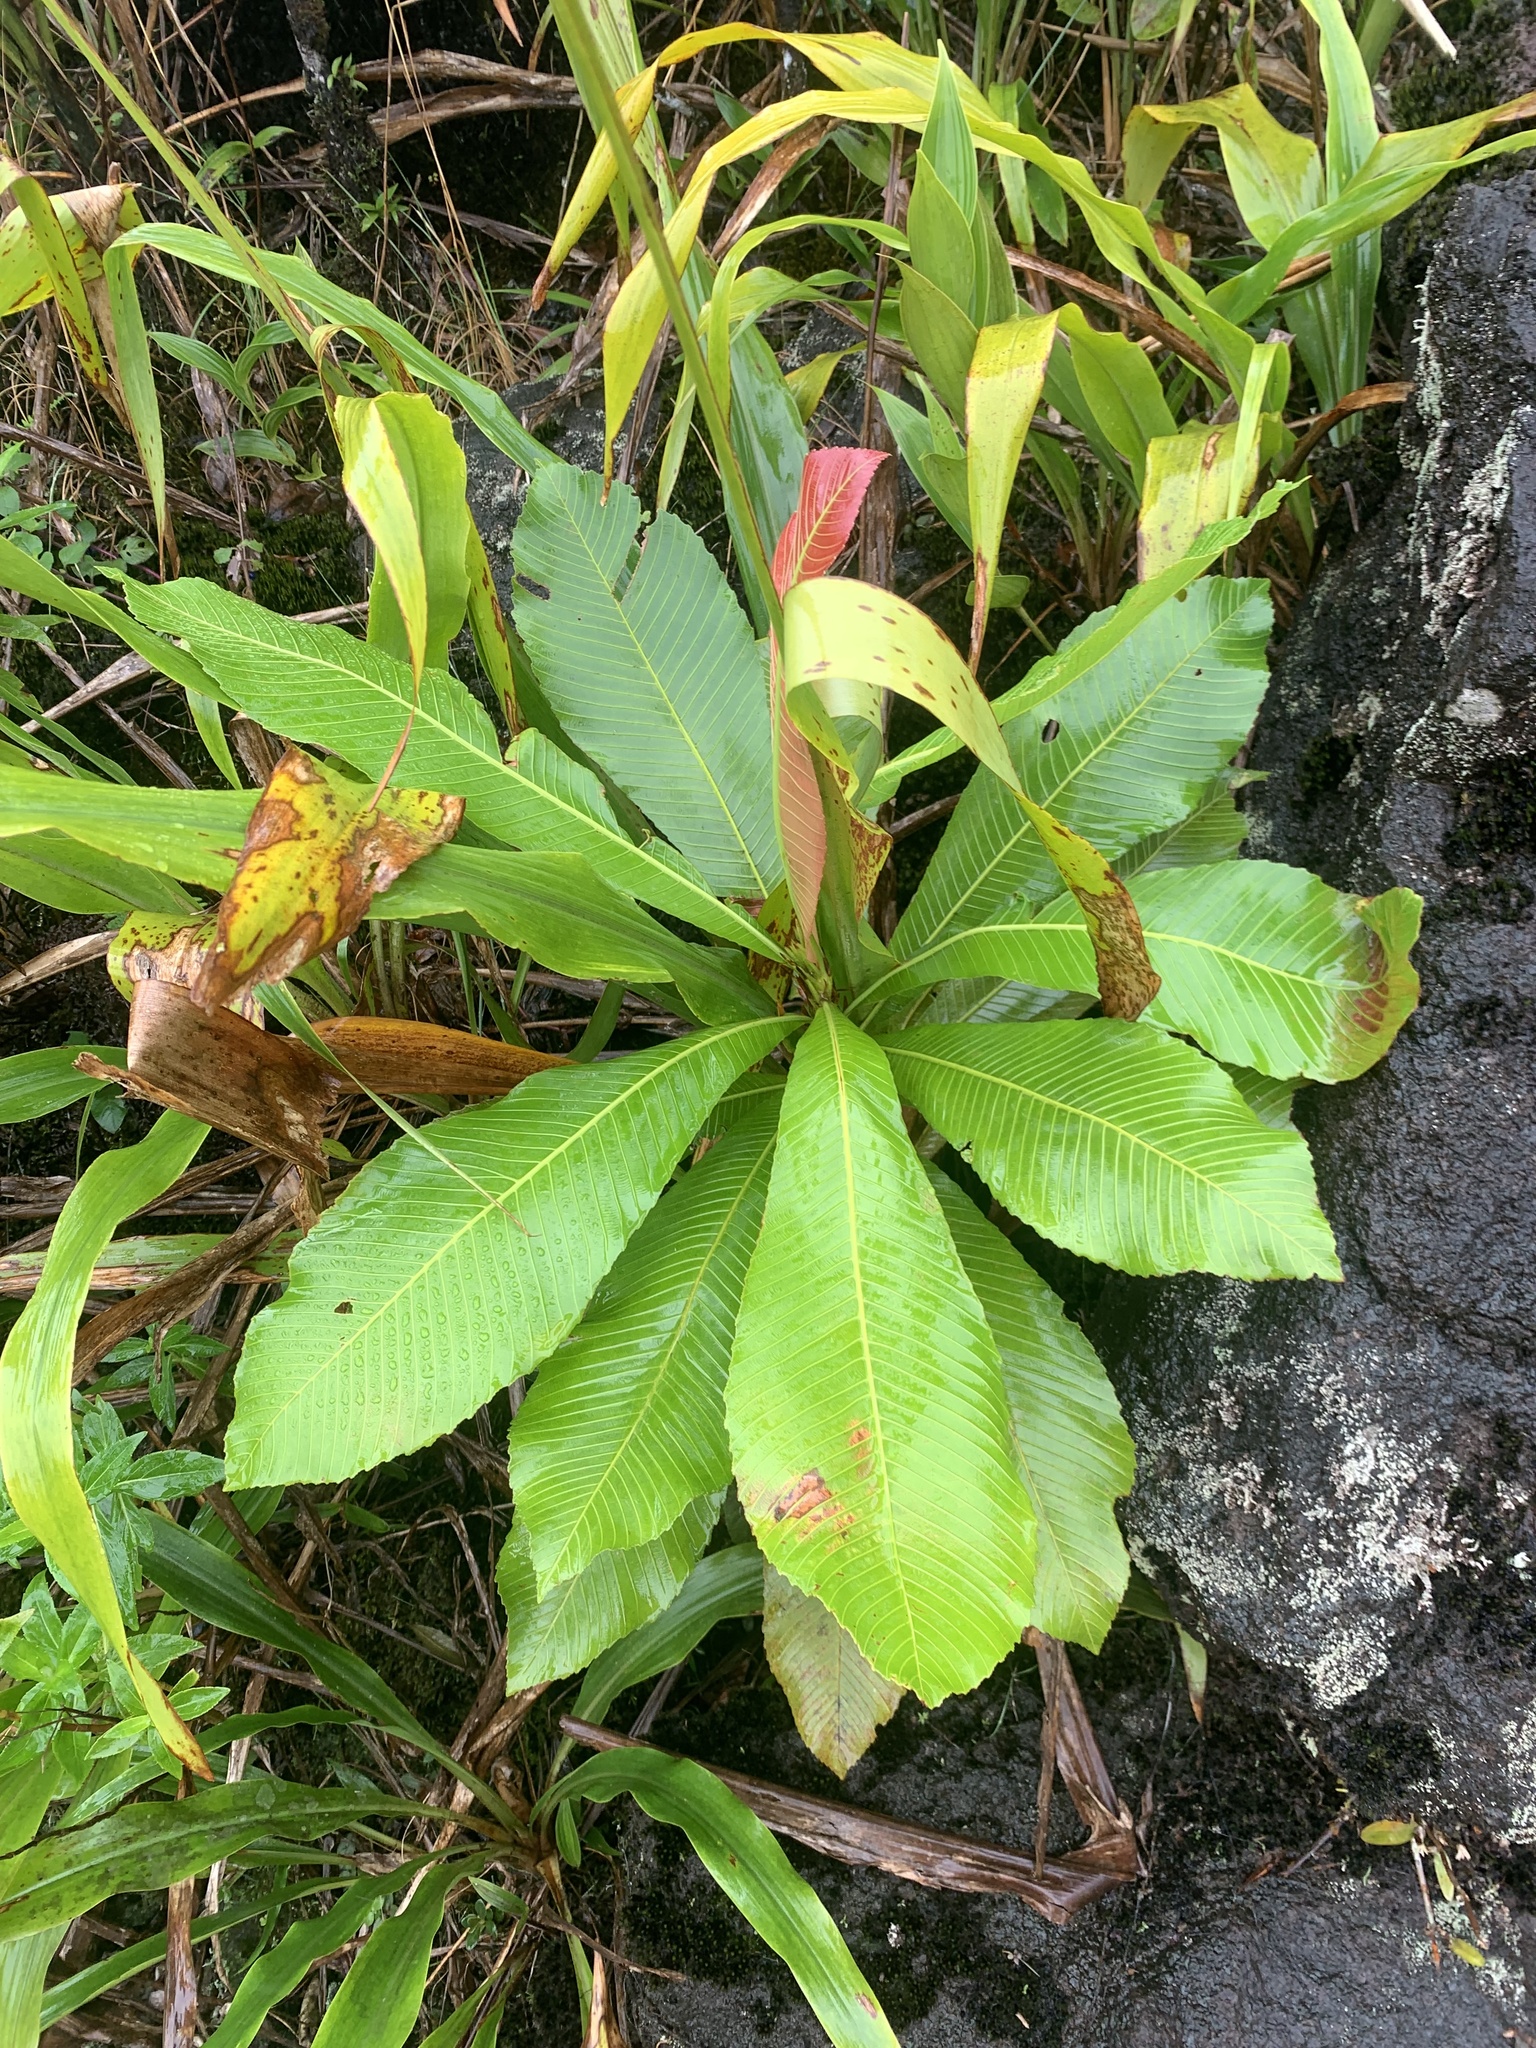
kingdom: Plantae
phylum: Tracheophyta
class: Magnoliopsida
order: Malpighiales
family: Ochnaceae
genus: Cespedesia
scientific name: Cespedesia spathulata
